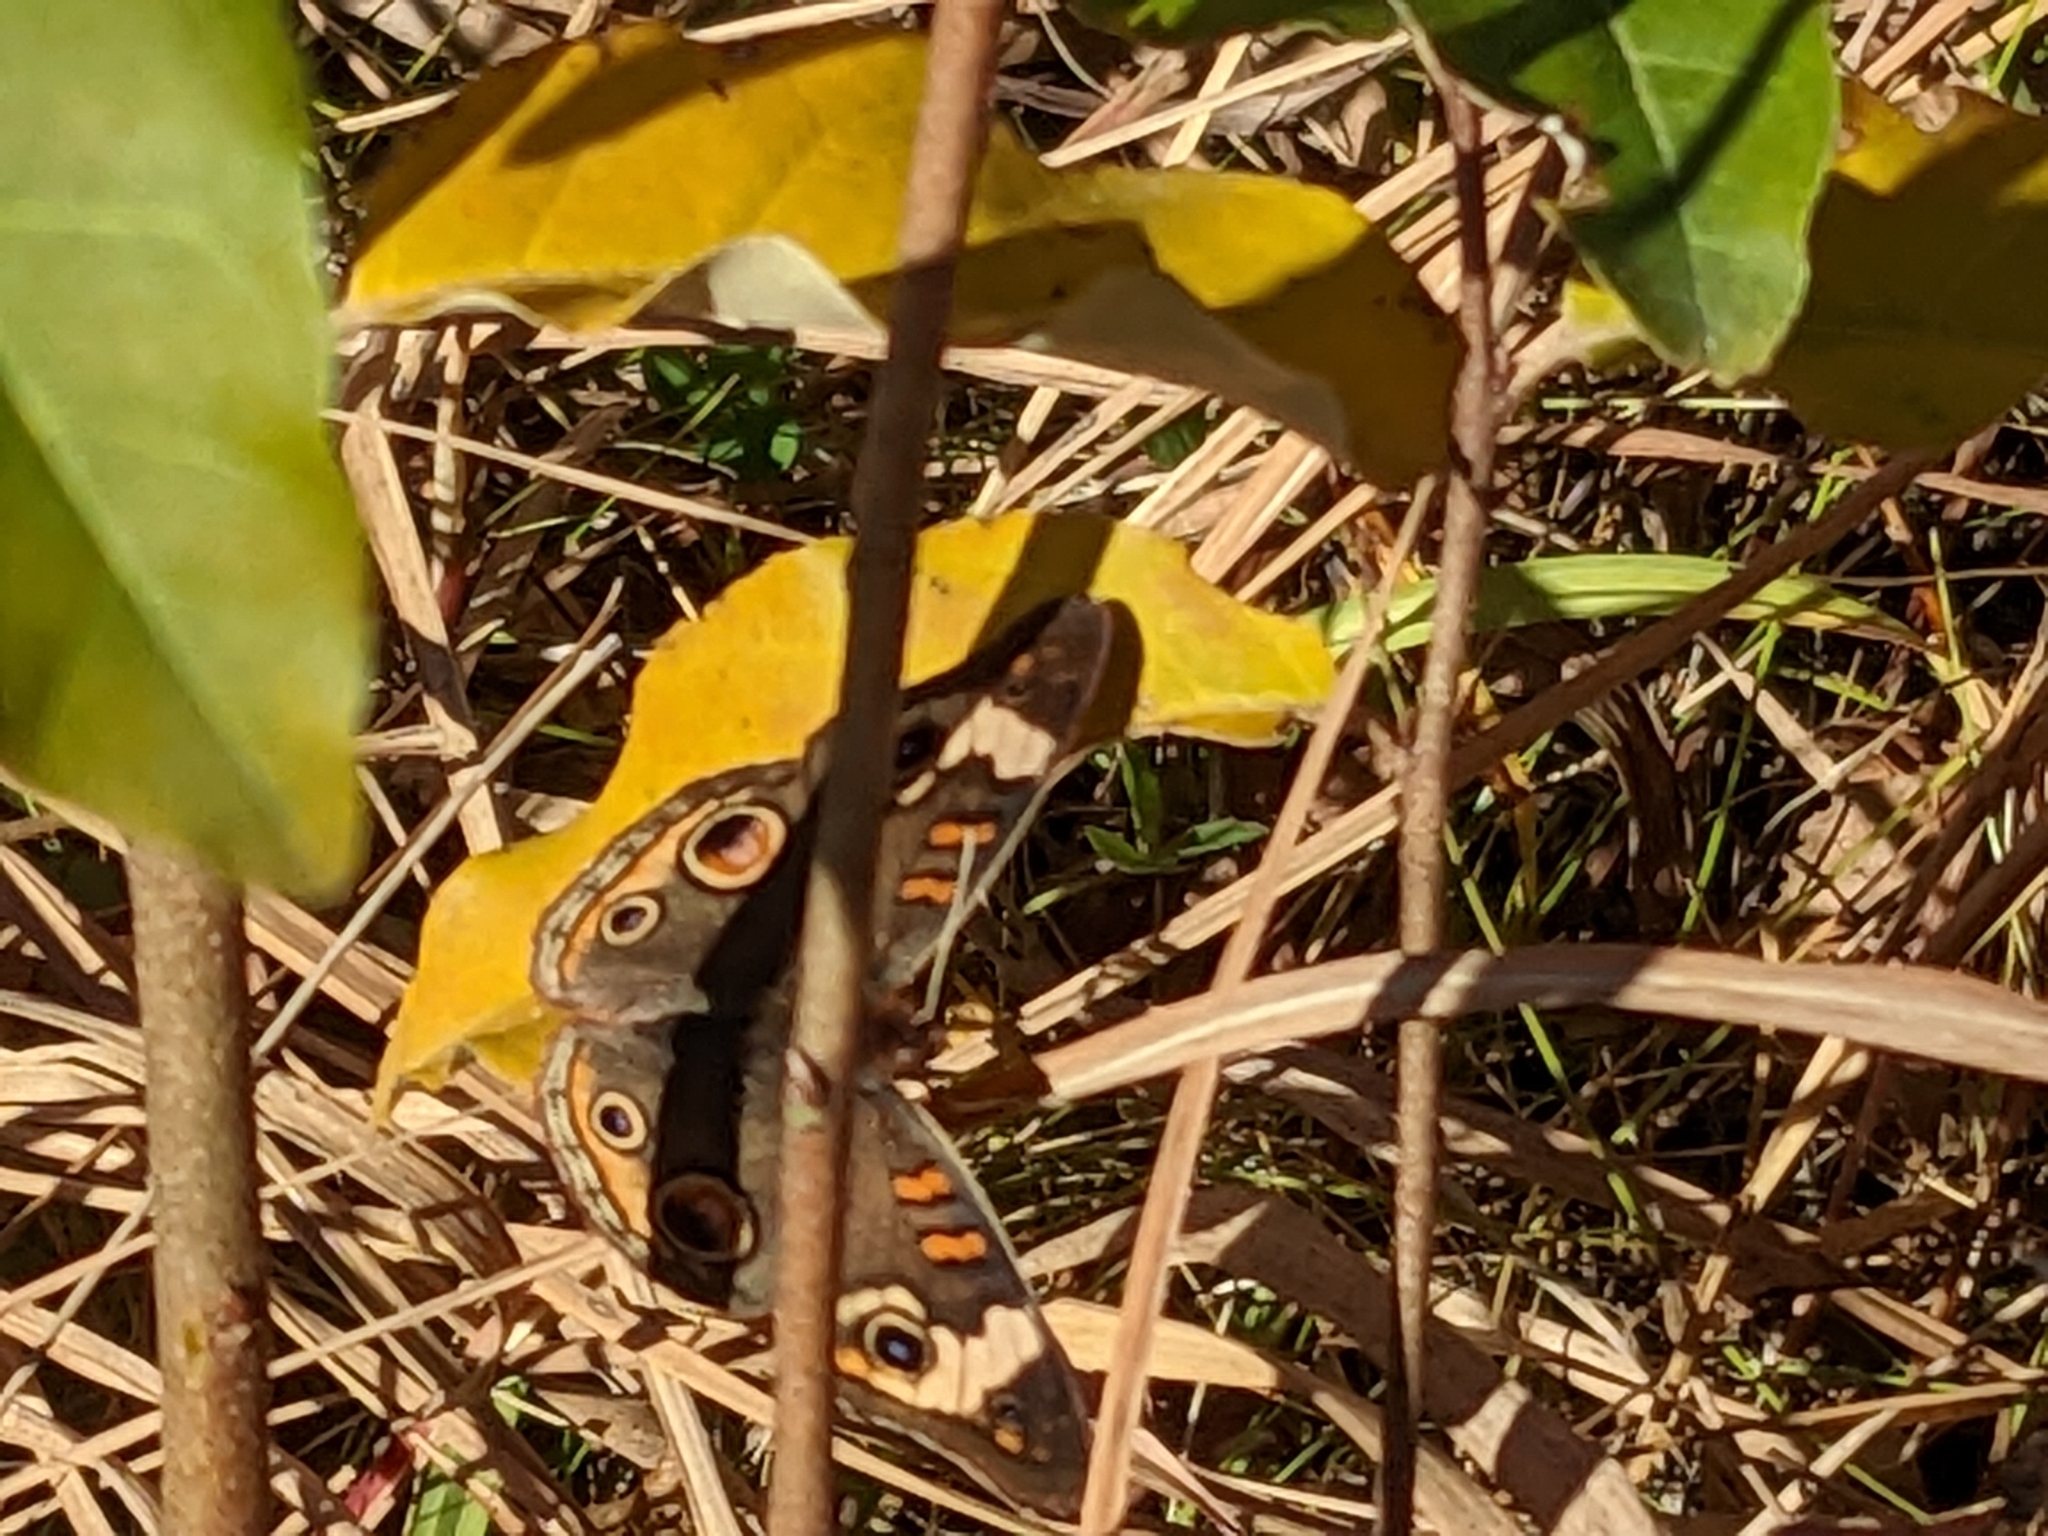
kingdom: Animalia
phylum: Arthropoda
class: Insecta
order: Lepidoptera
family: Nymphalidae
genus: Junonia
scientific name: Junonia coenia
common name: Common buckeye
